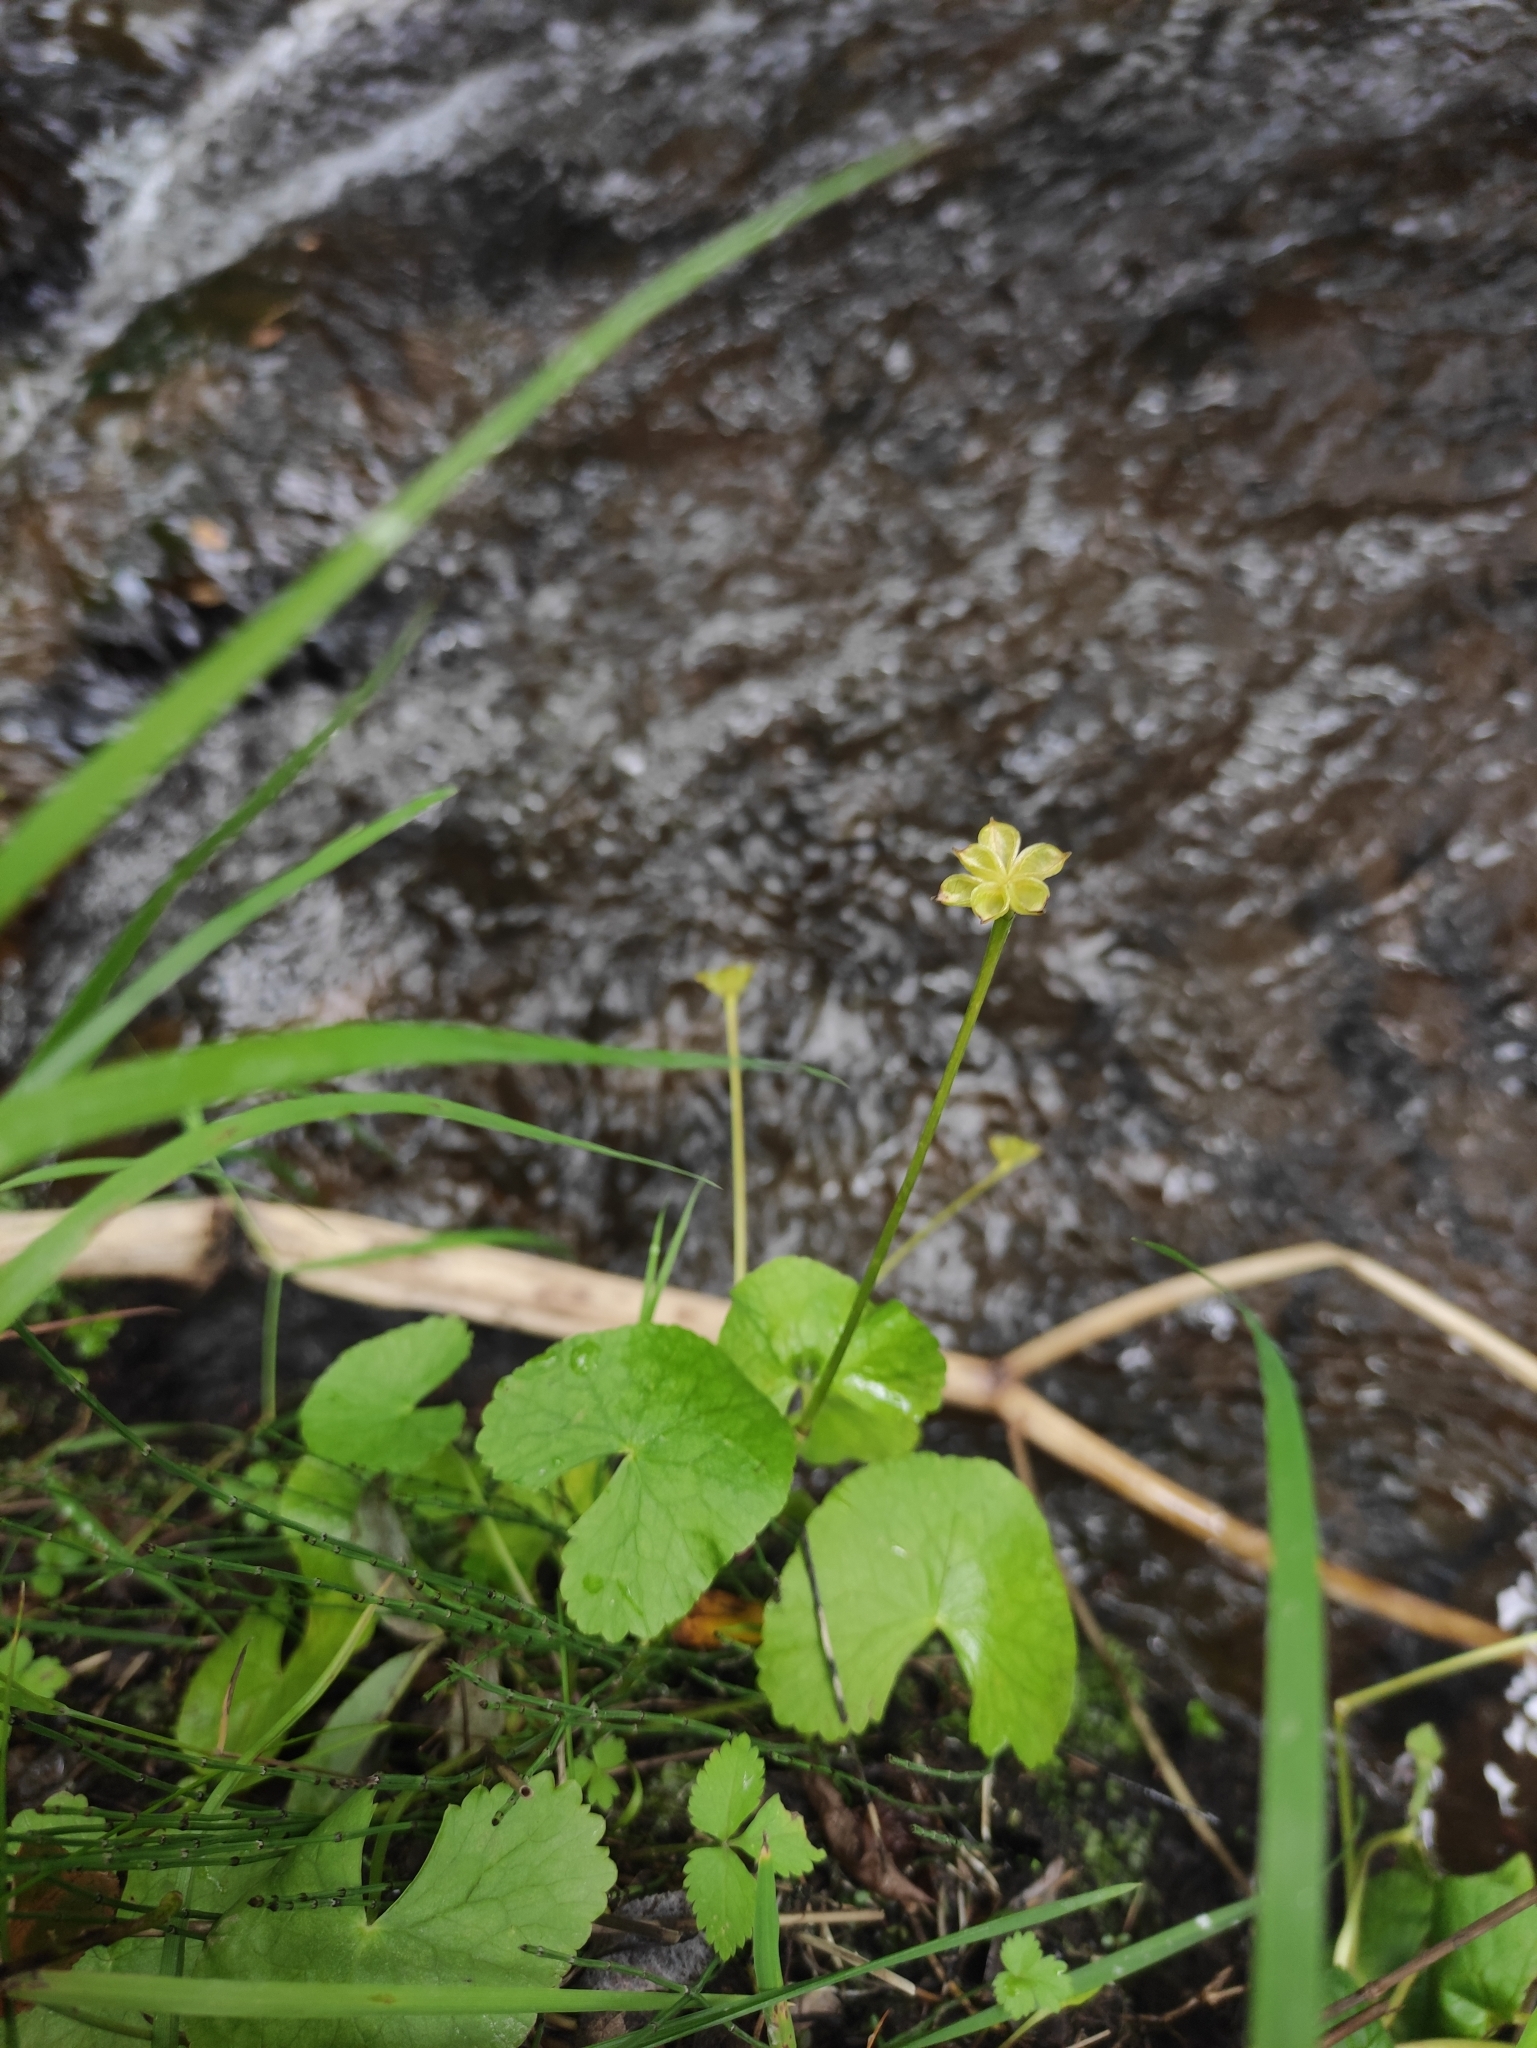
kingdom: Plantae
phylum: Tracheophyta
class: Magnoliopsida
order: Ranunculales
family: Ranunculaceae
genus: Caltha
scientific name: Caltha palustris
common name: Marsh marigold
